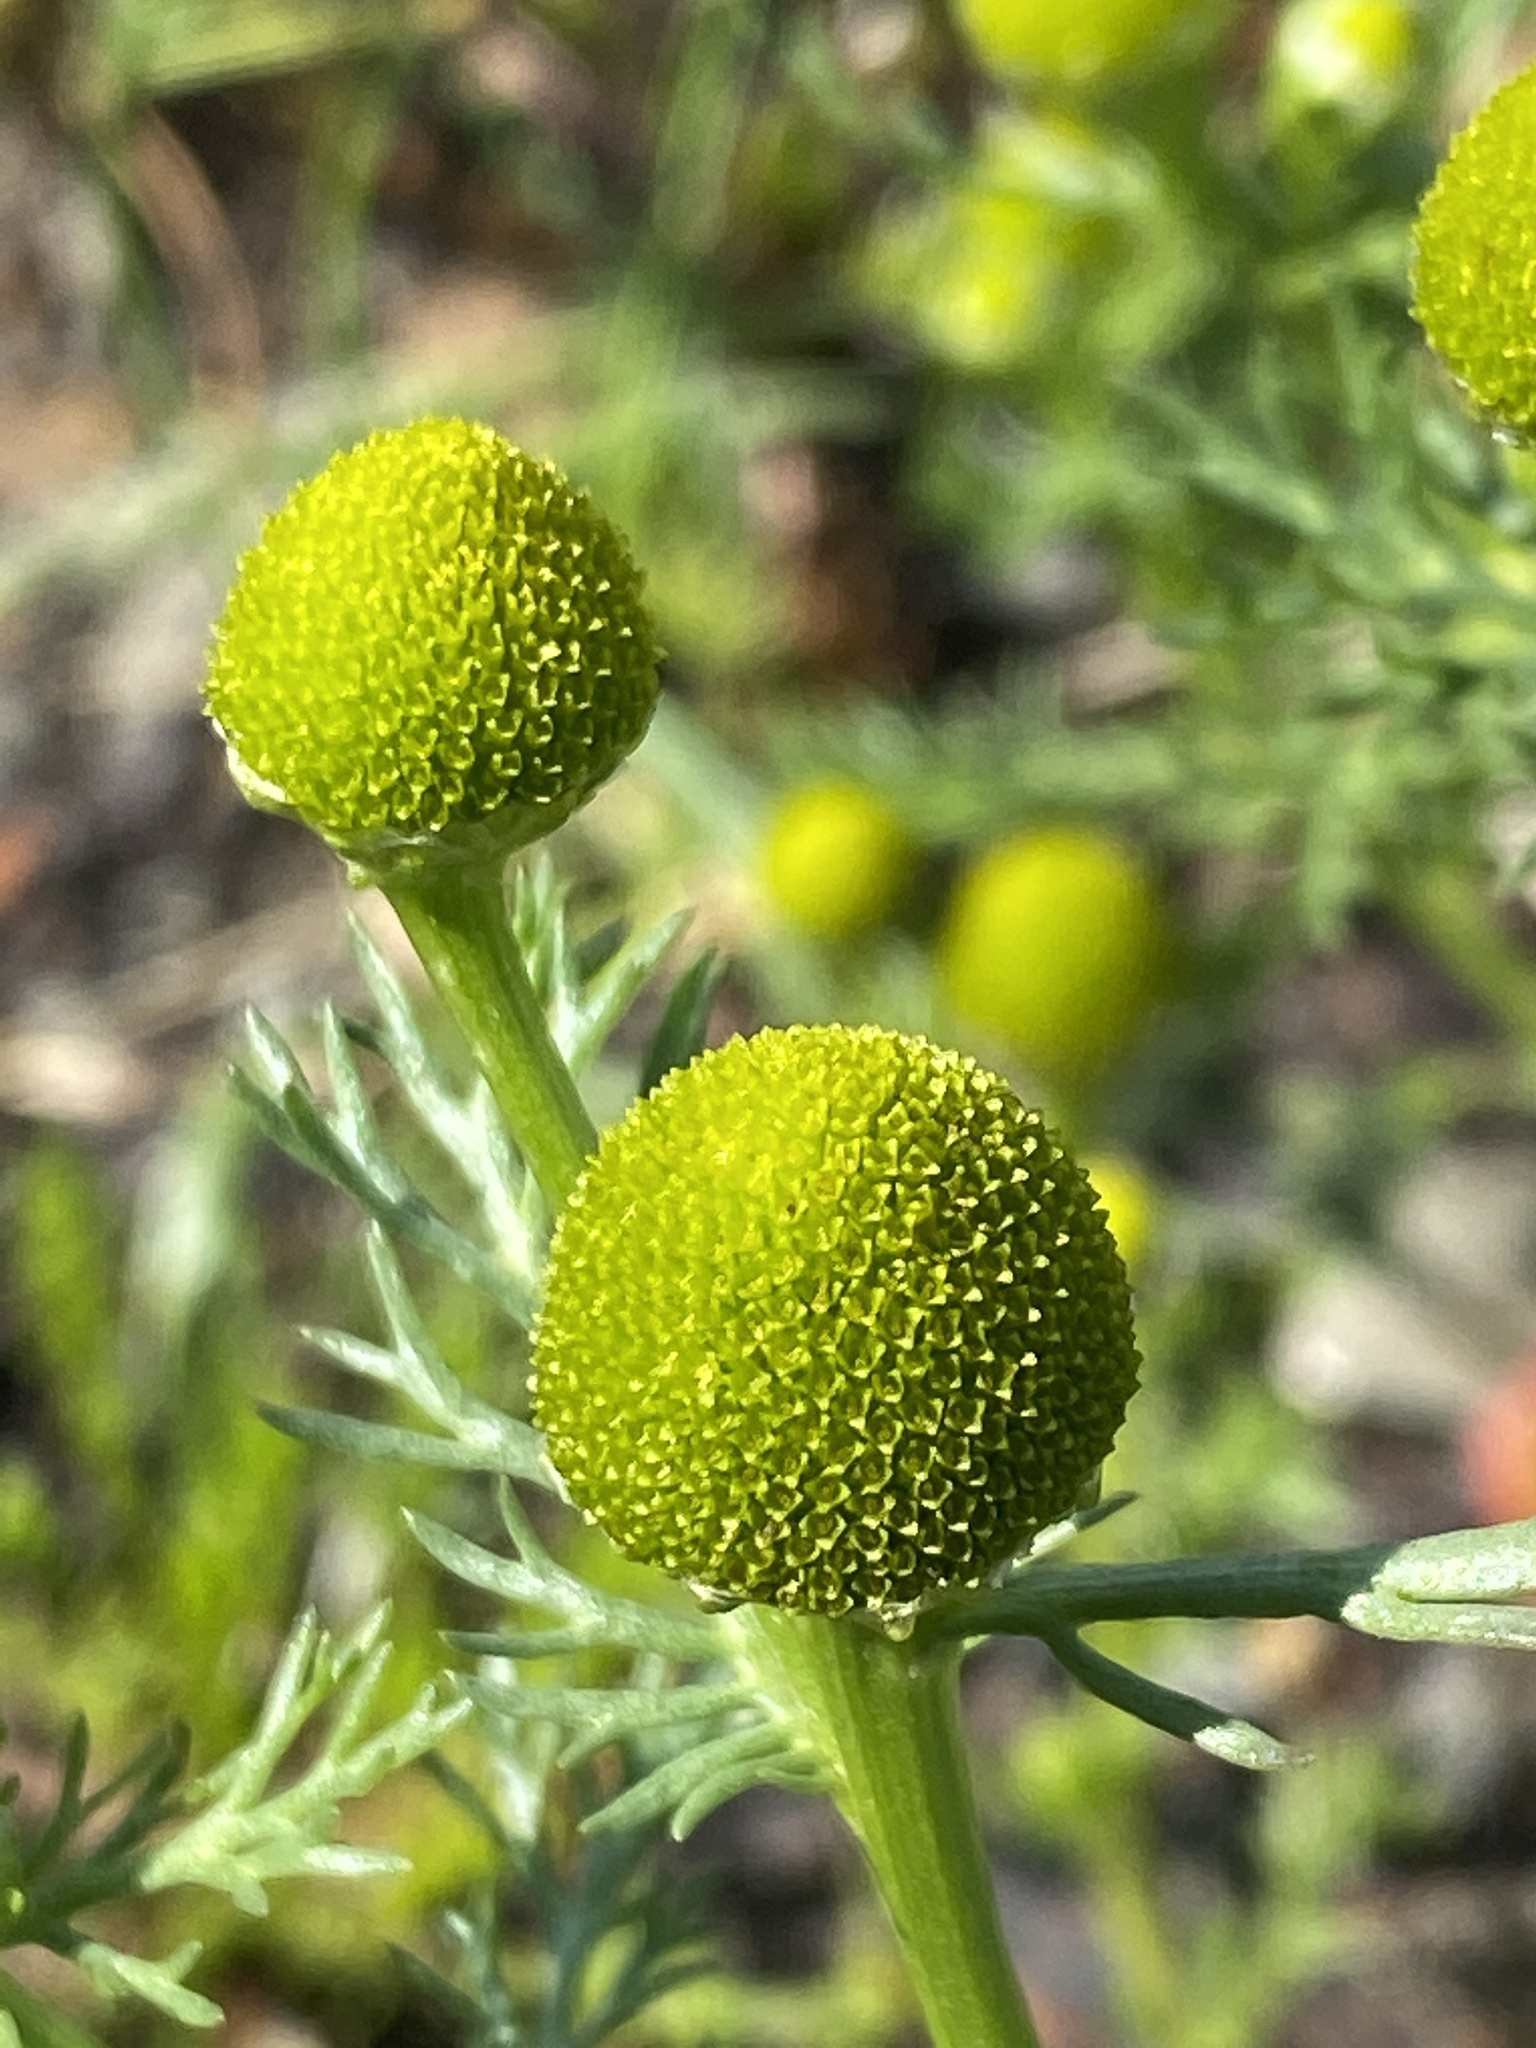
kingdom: Plantae
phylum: Tracheophyta
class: Magnoliopsida
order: Asterales
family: Asteraceae
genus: Matricaria
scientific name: Matricaria discoidea
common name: Disc mayweed
